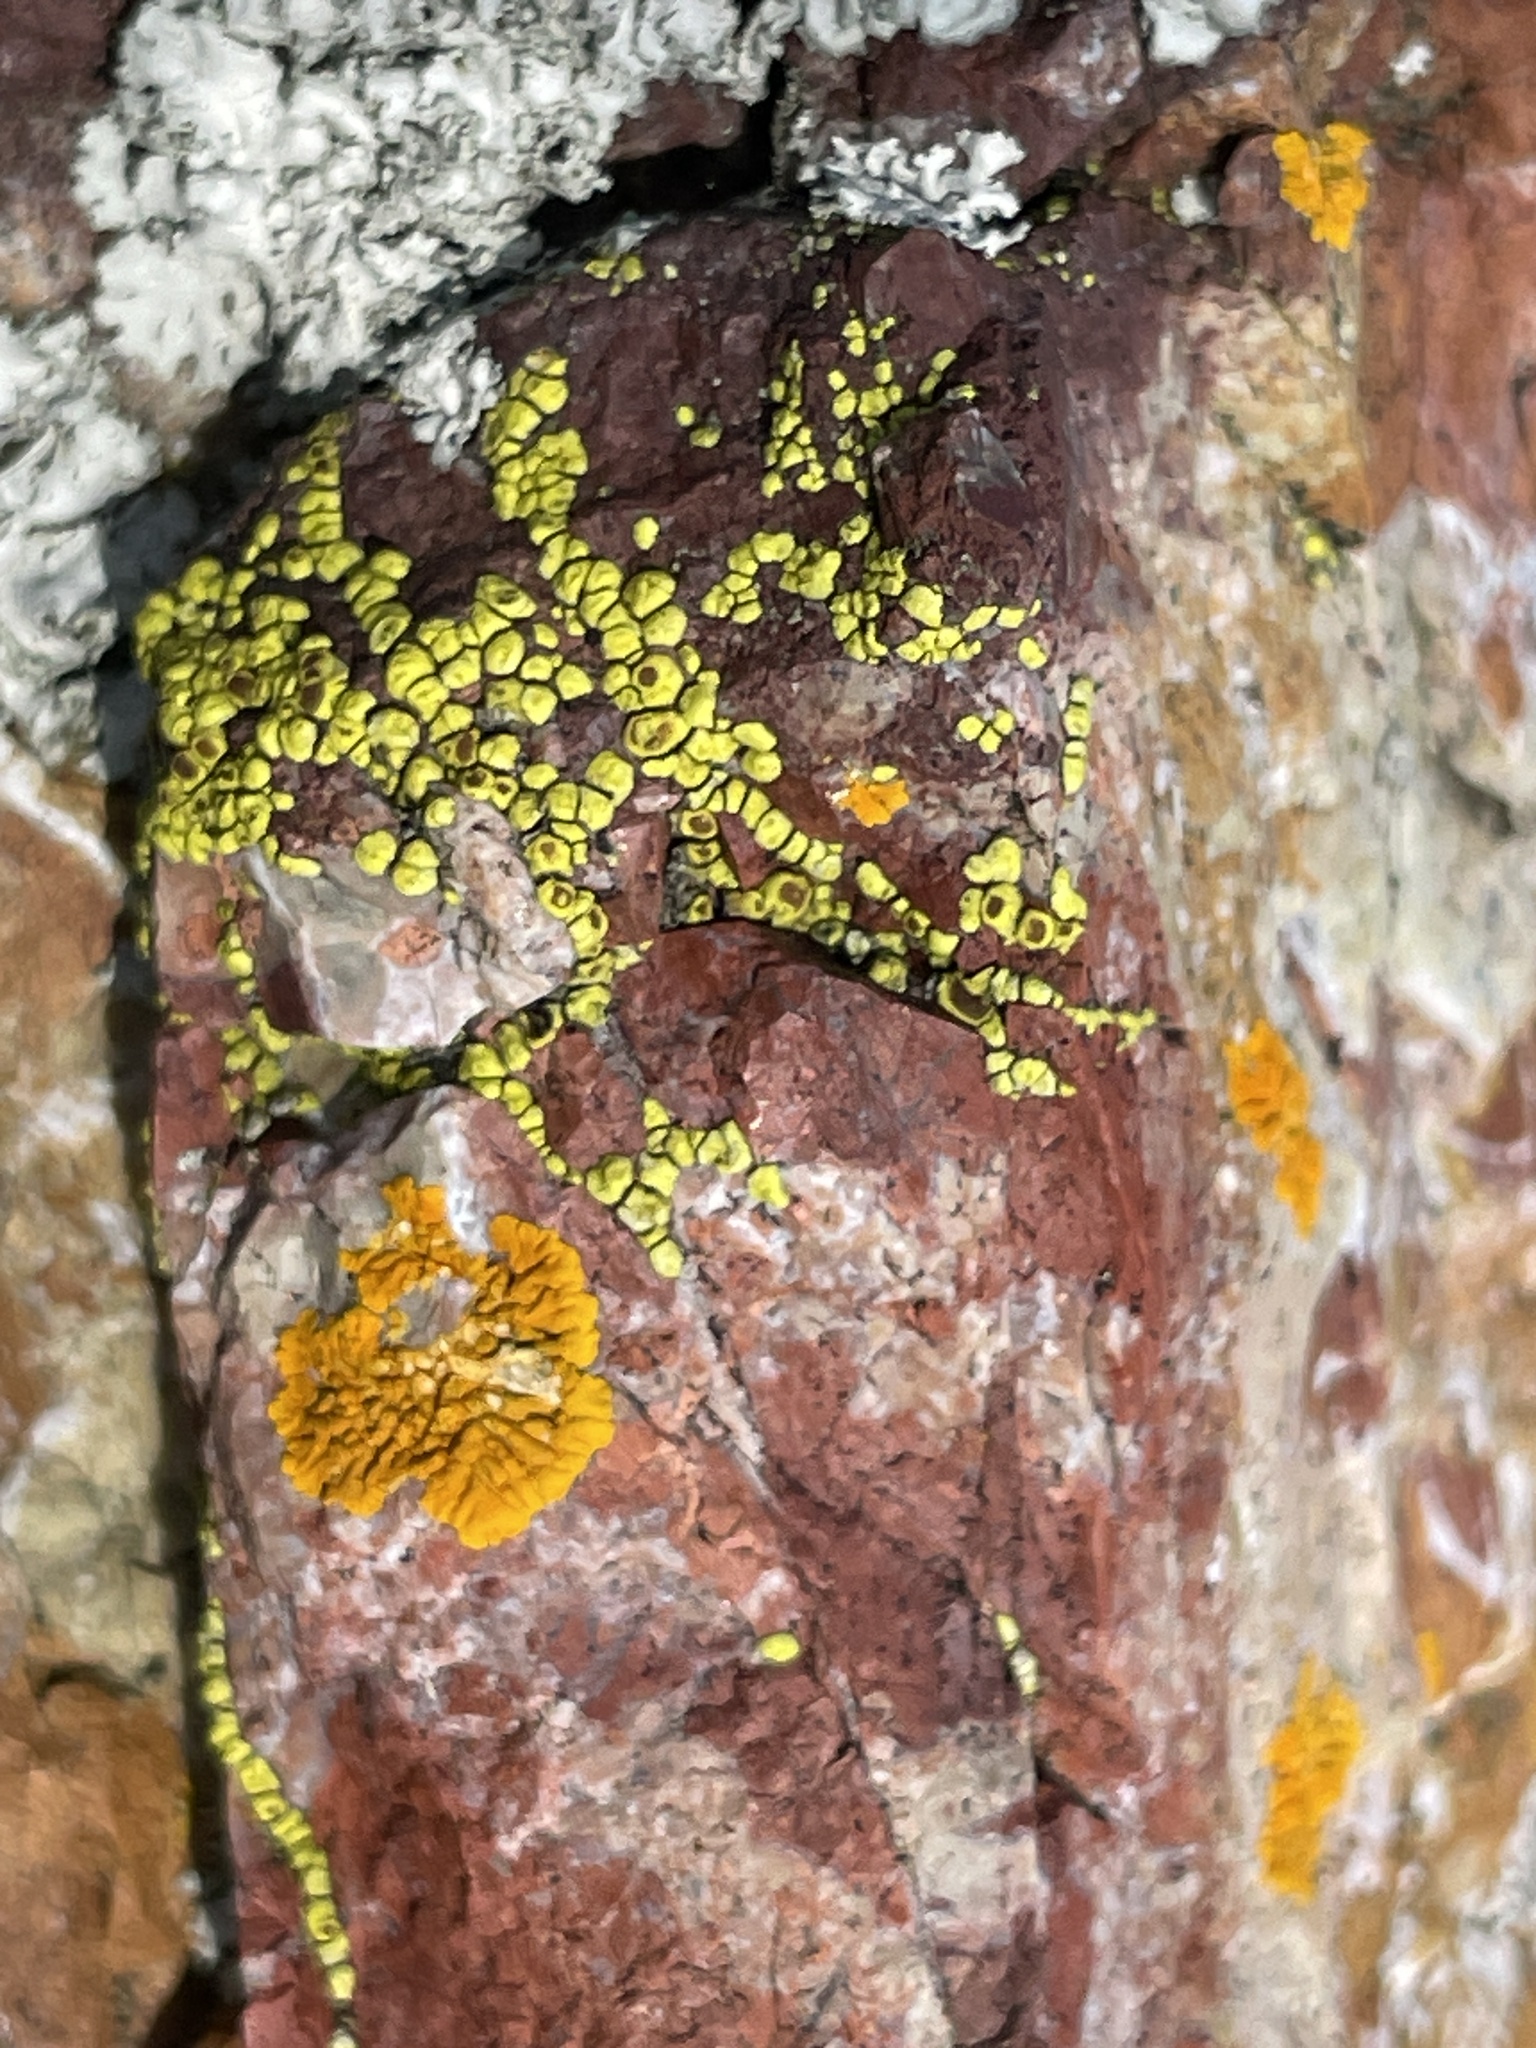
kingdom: Fungi
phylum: Ascomycota
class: Lecanoromycetes
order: Acarosporales
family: Acarosporaceae
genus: Acarospora
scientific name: Acarospora socialis
